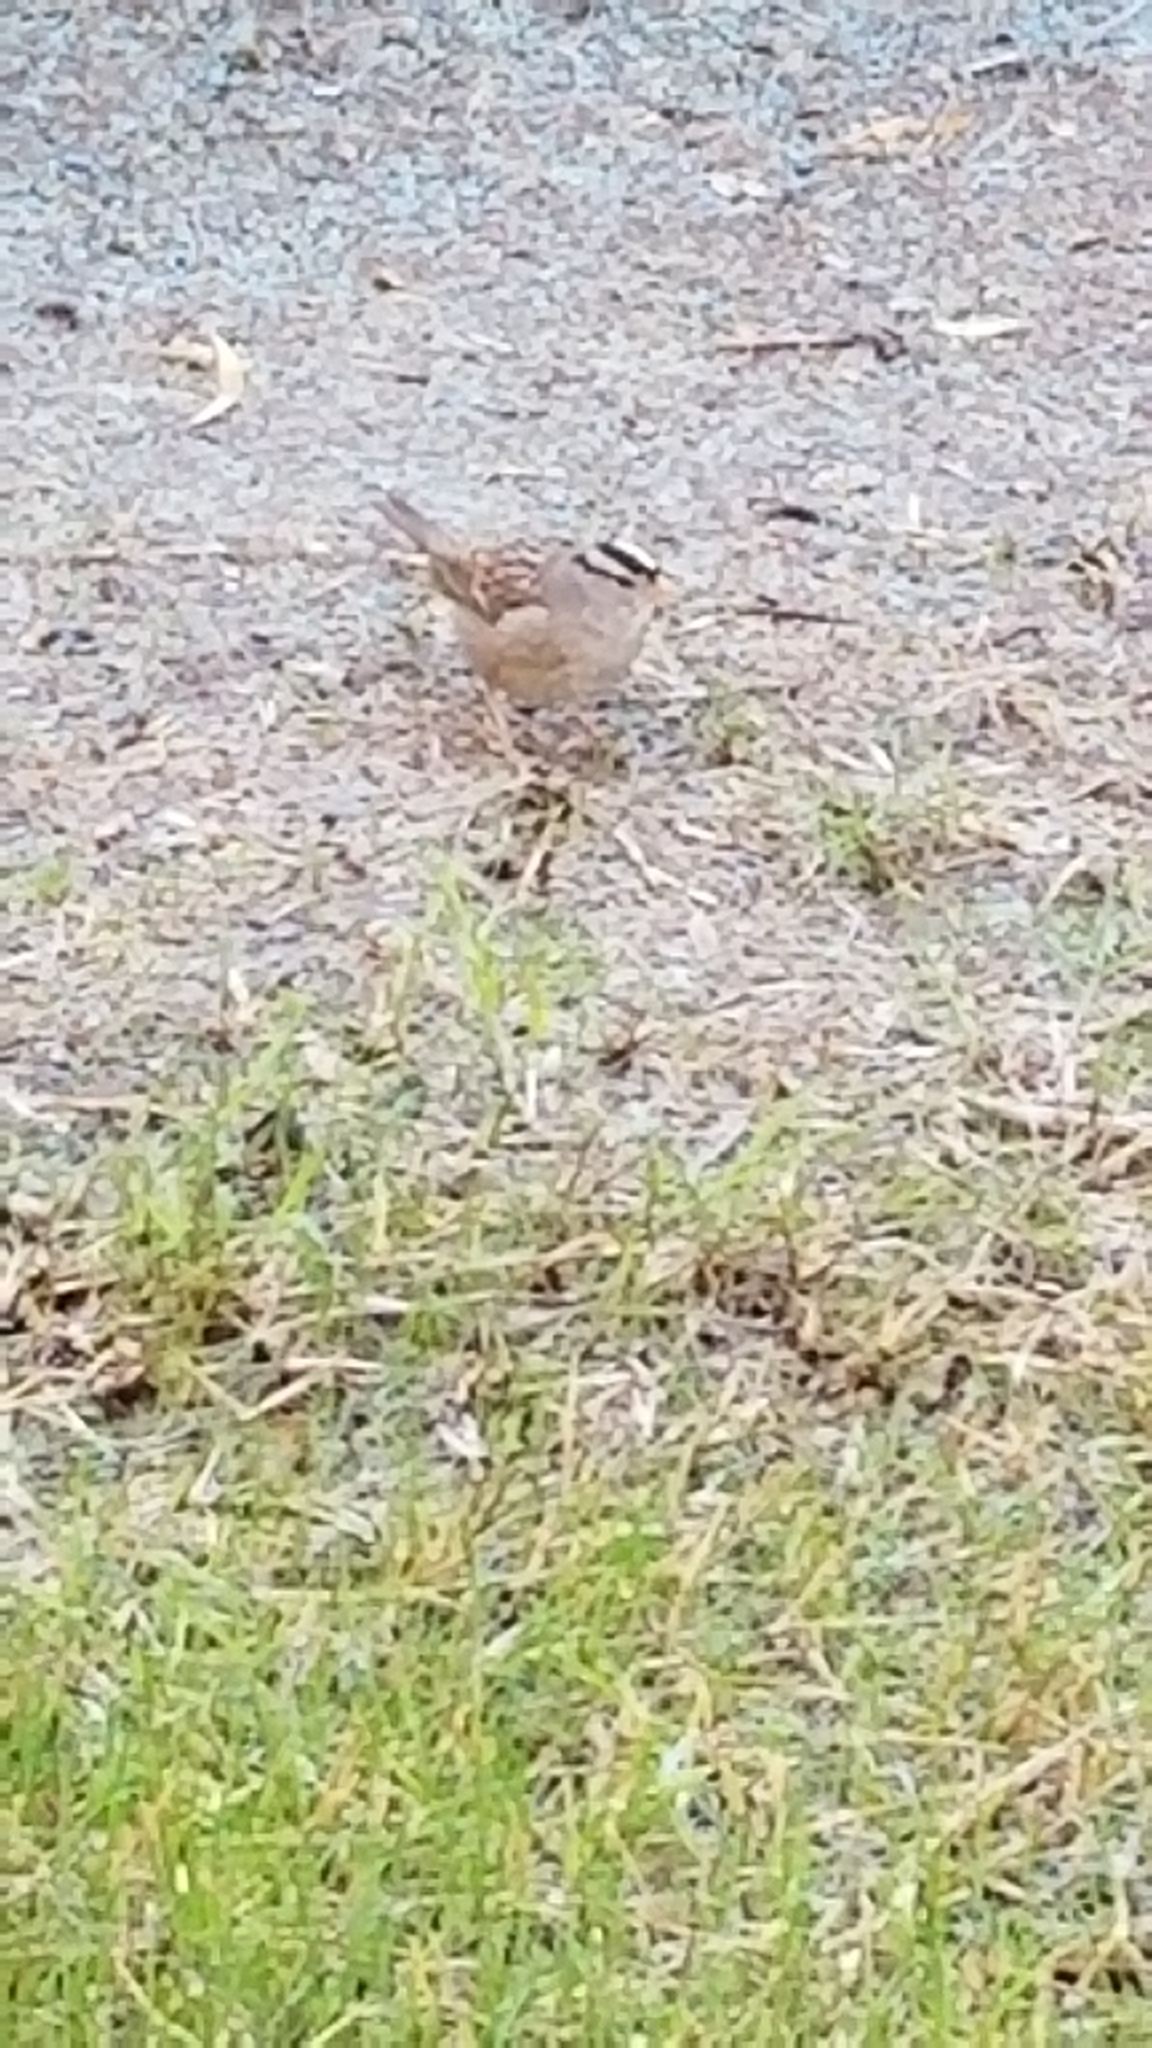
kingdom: Animalia
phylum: Chordata
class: Aves
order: Passeriformes
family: Passerellidae
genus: Zonotrichia
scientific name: Zonotrichia leucophrys
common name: White-crowned sparrow
